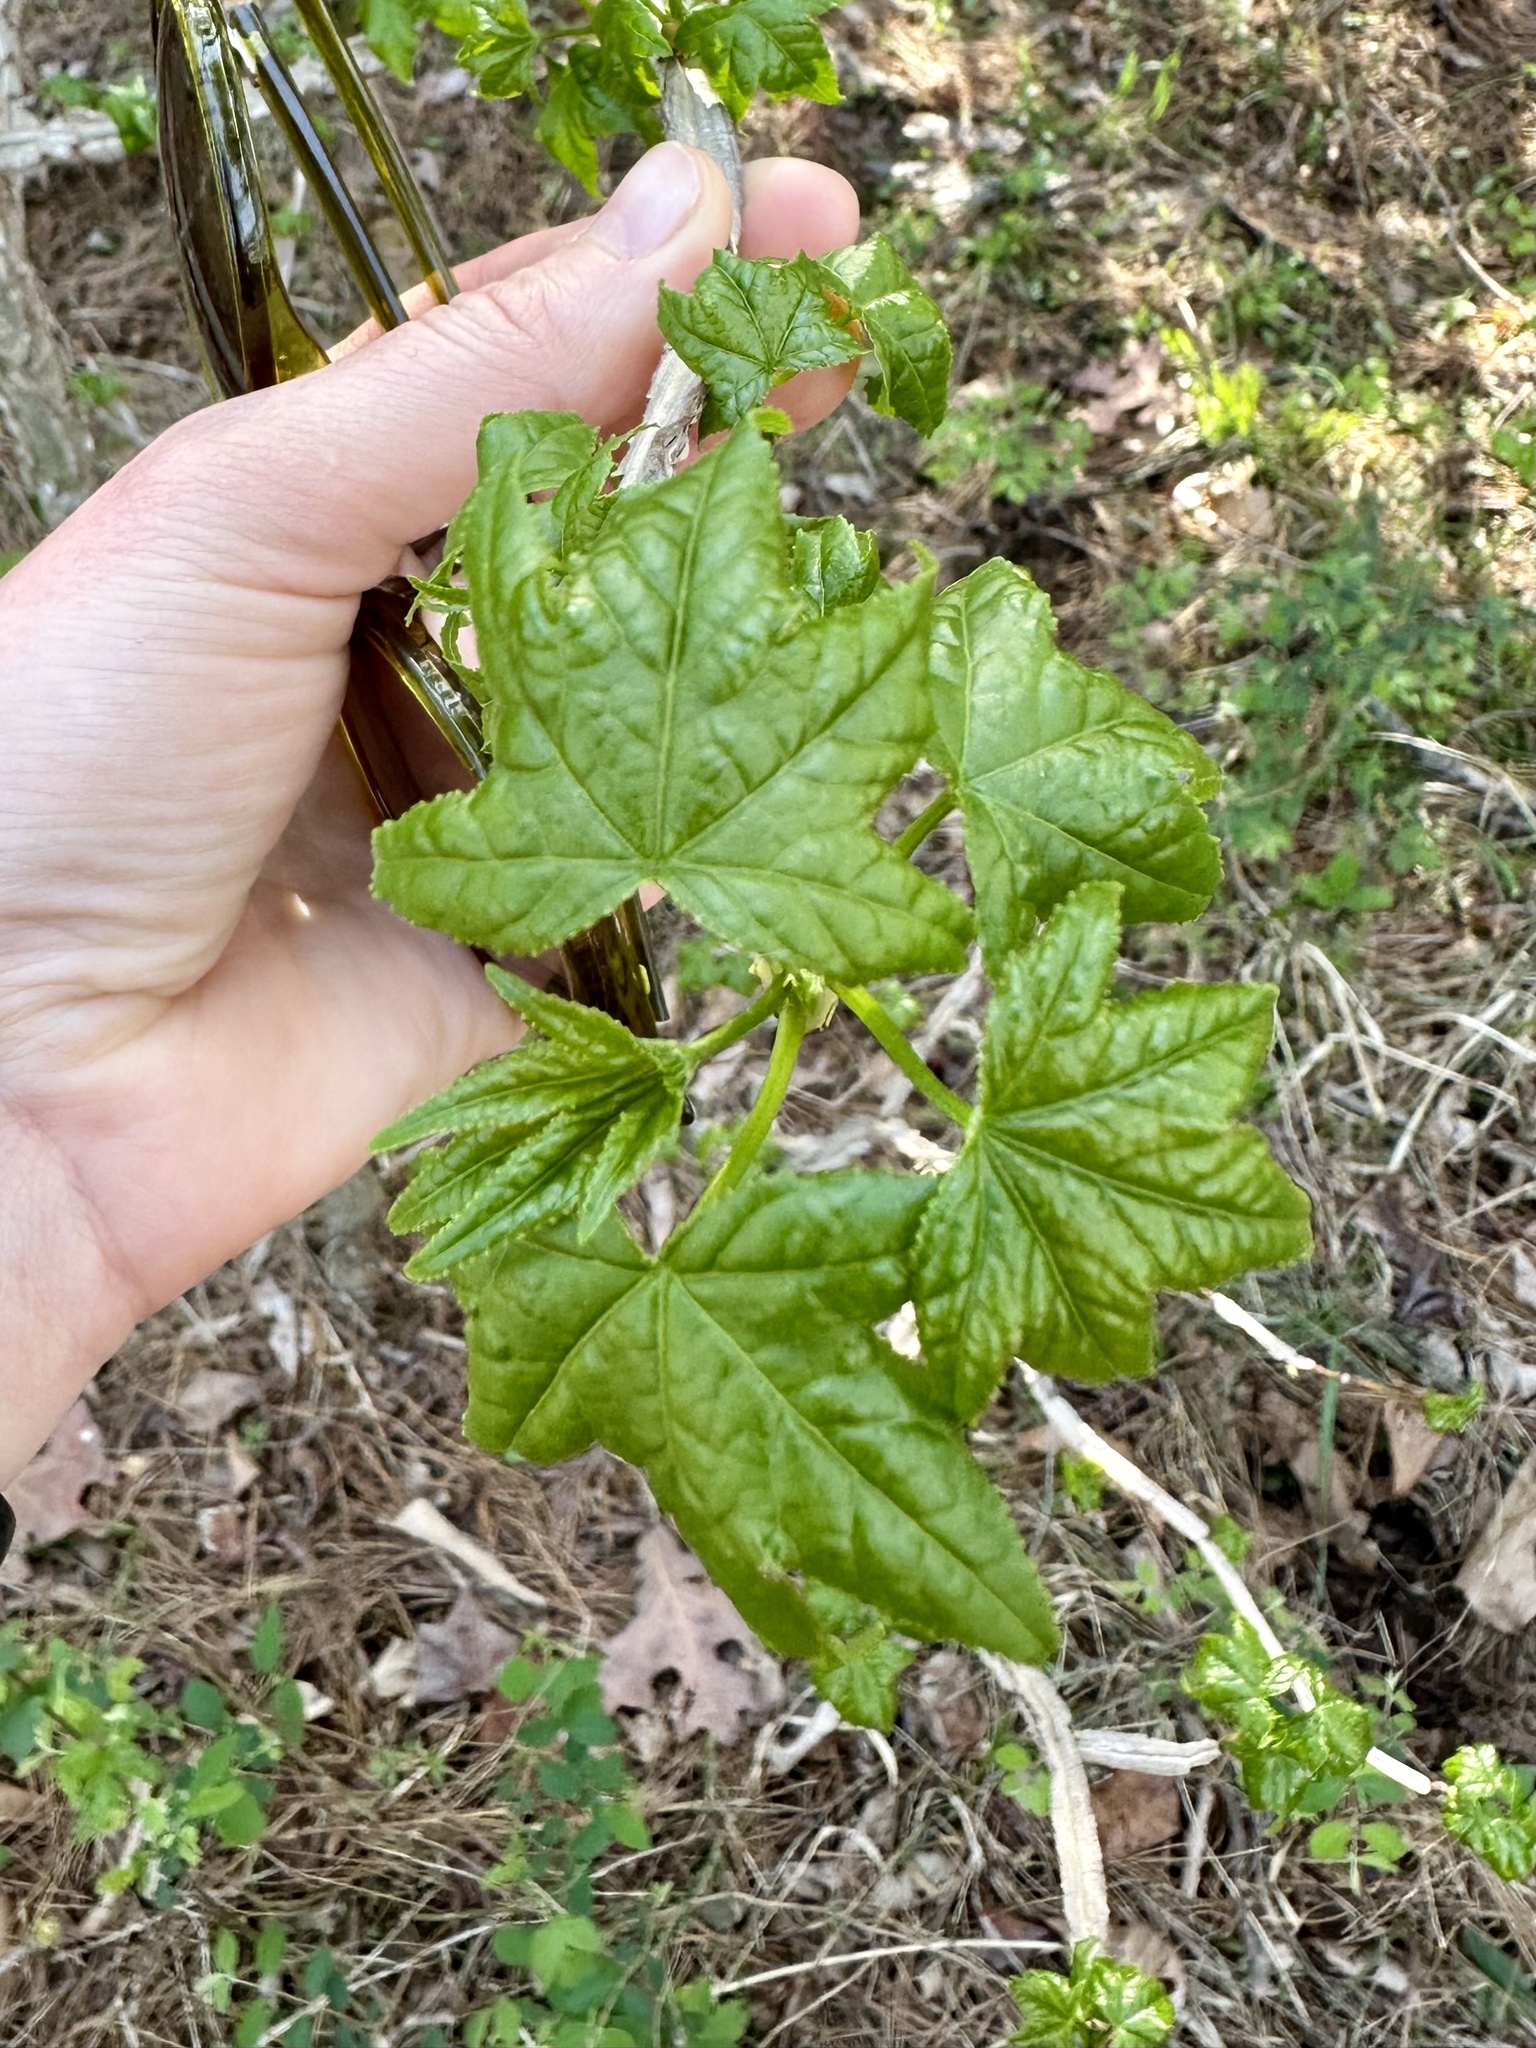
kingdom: Plantae
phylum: Tracheophyta
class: Magnoliopsida
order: Saxifragales
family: Altingiaceae
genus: Liquidambar
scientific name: Liquidambar styraciflua
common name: Sweet gum
